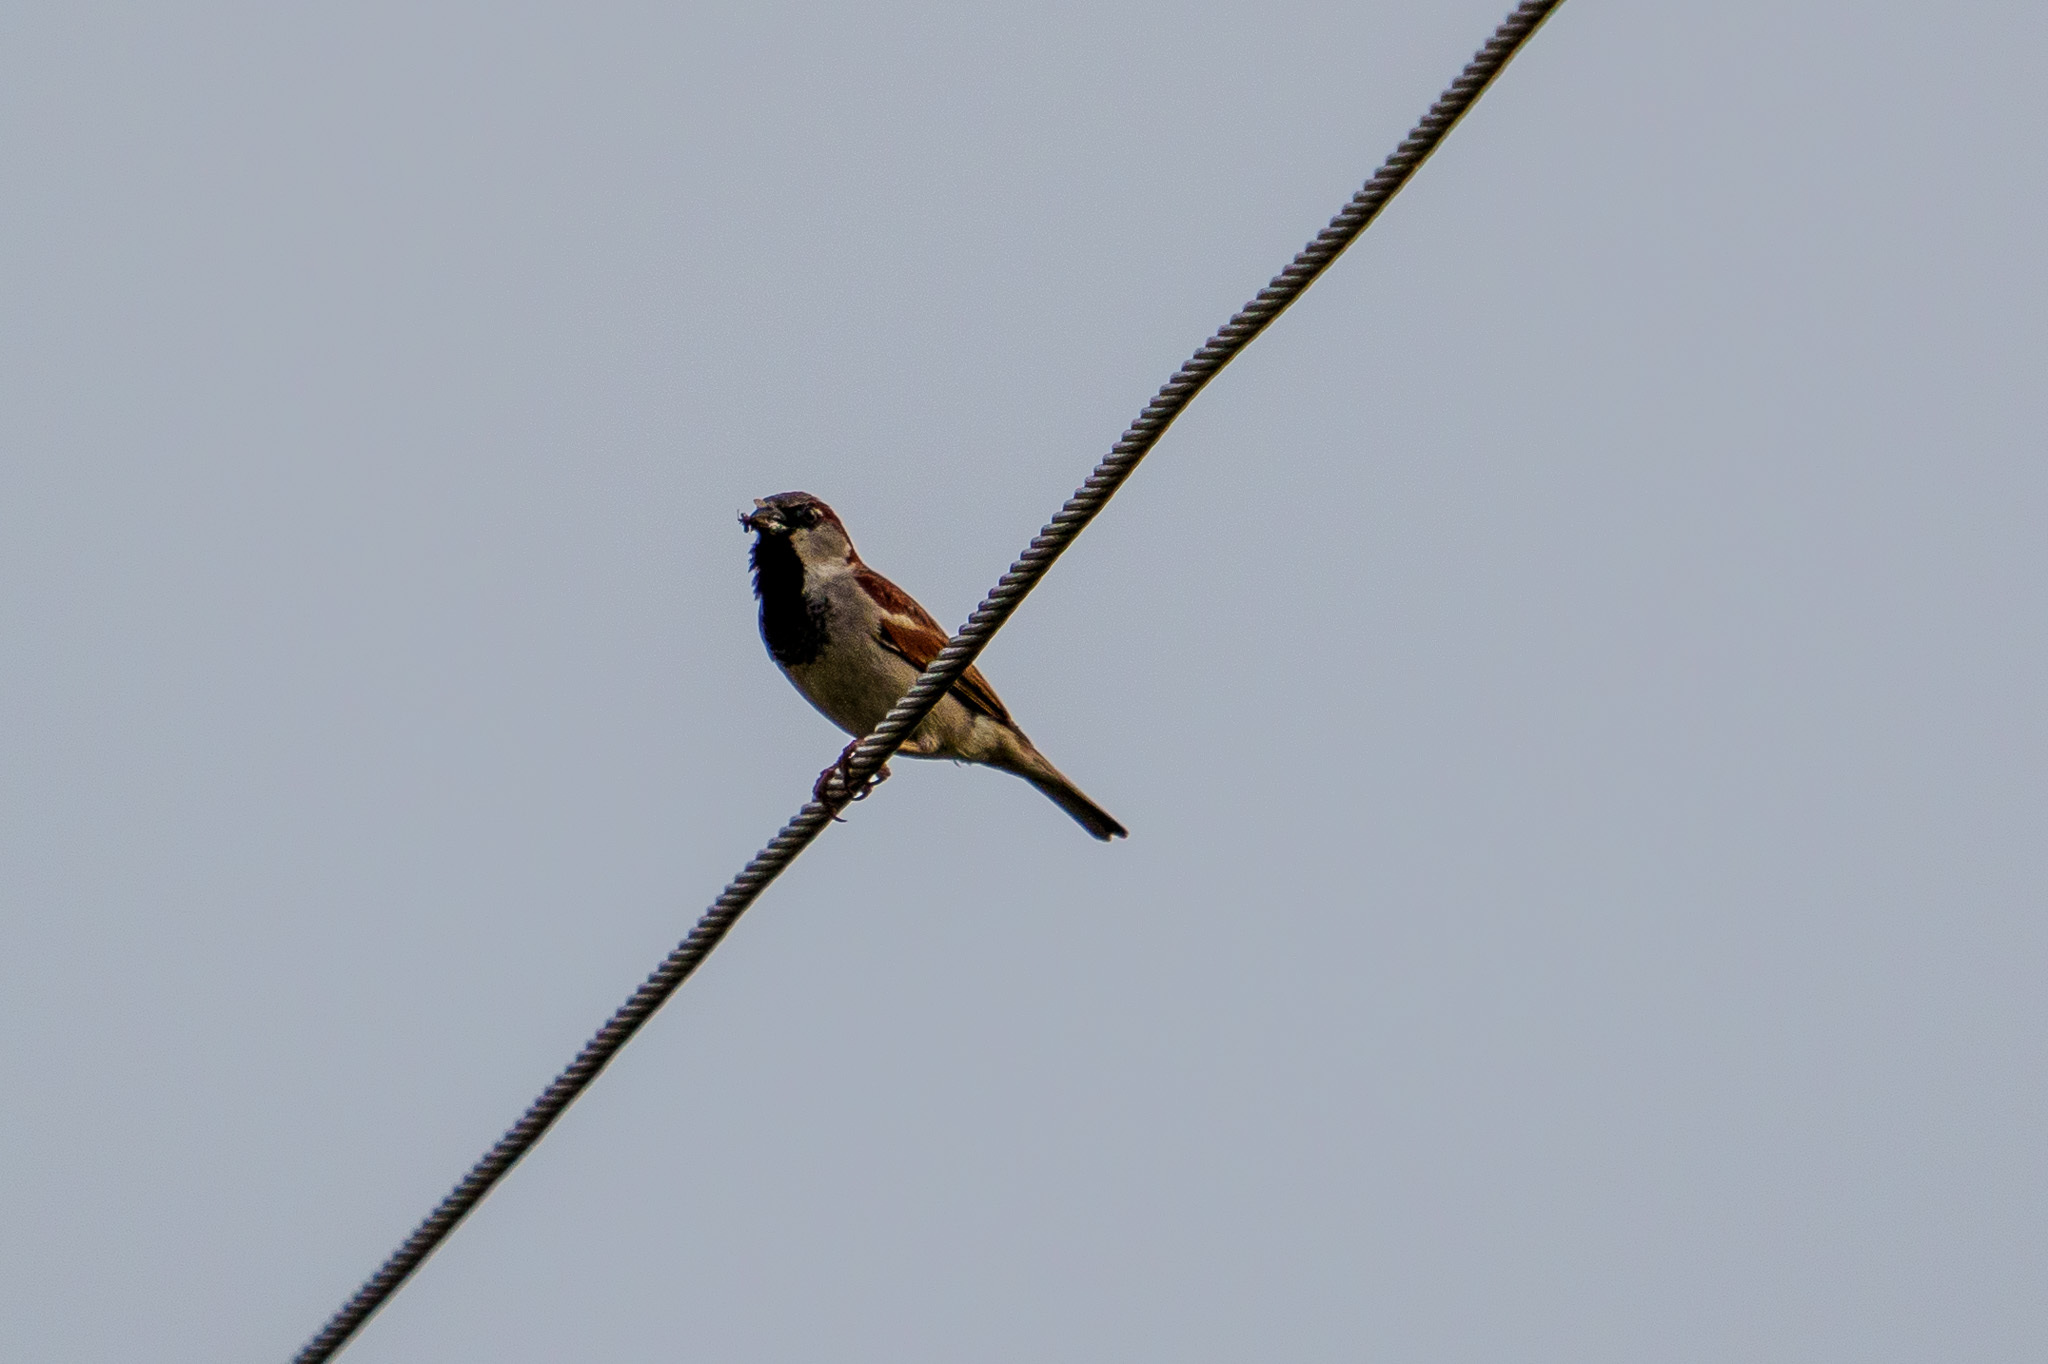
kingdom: Animalia
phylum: Chordata
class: Aves
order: Passeriformes
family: Passeridae
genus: Passer
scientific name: Passer domesticus
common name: House sparrow
